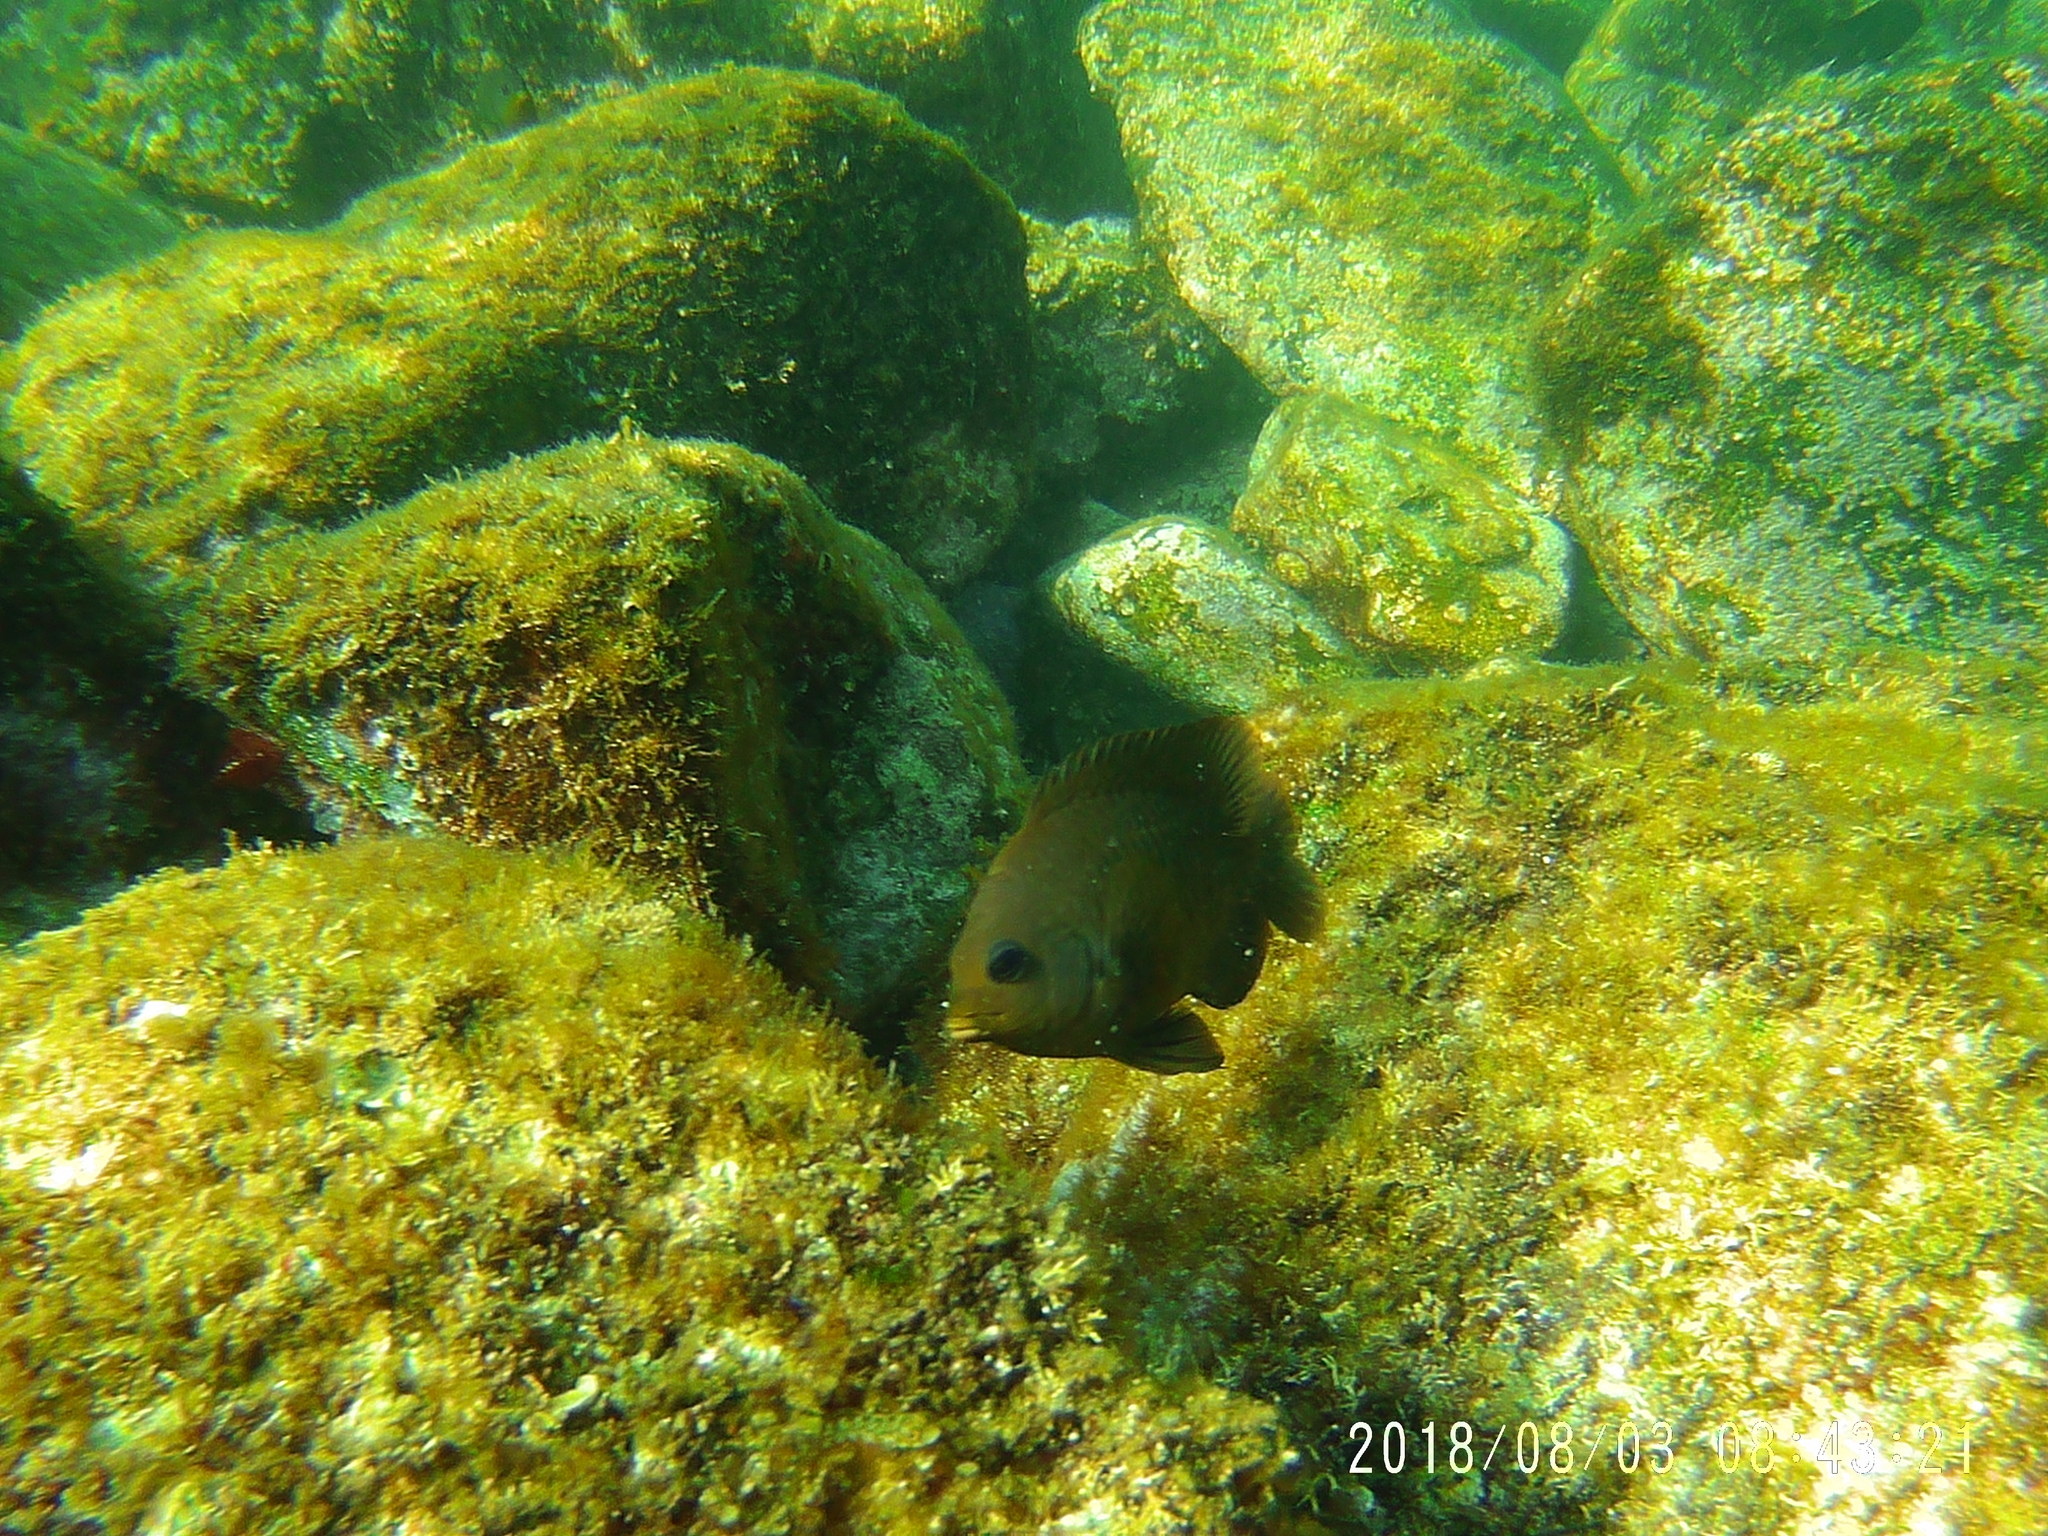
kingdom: Animalia
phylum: Chordata
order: Perciformes
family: Pomacentridae
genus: Stegastes
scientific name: Stegastes rectifraenum
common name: Cortez damselfish
